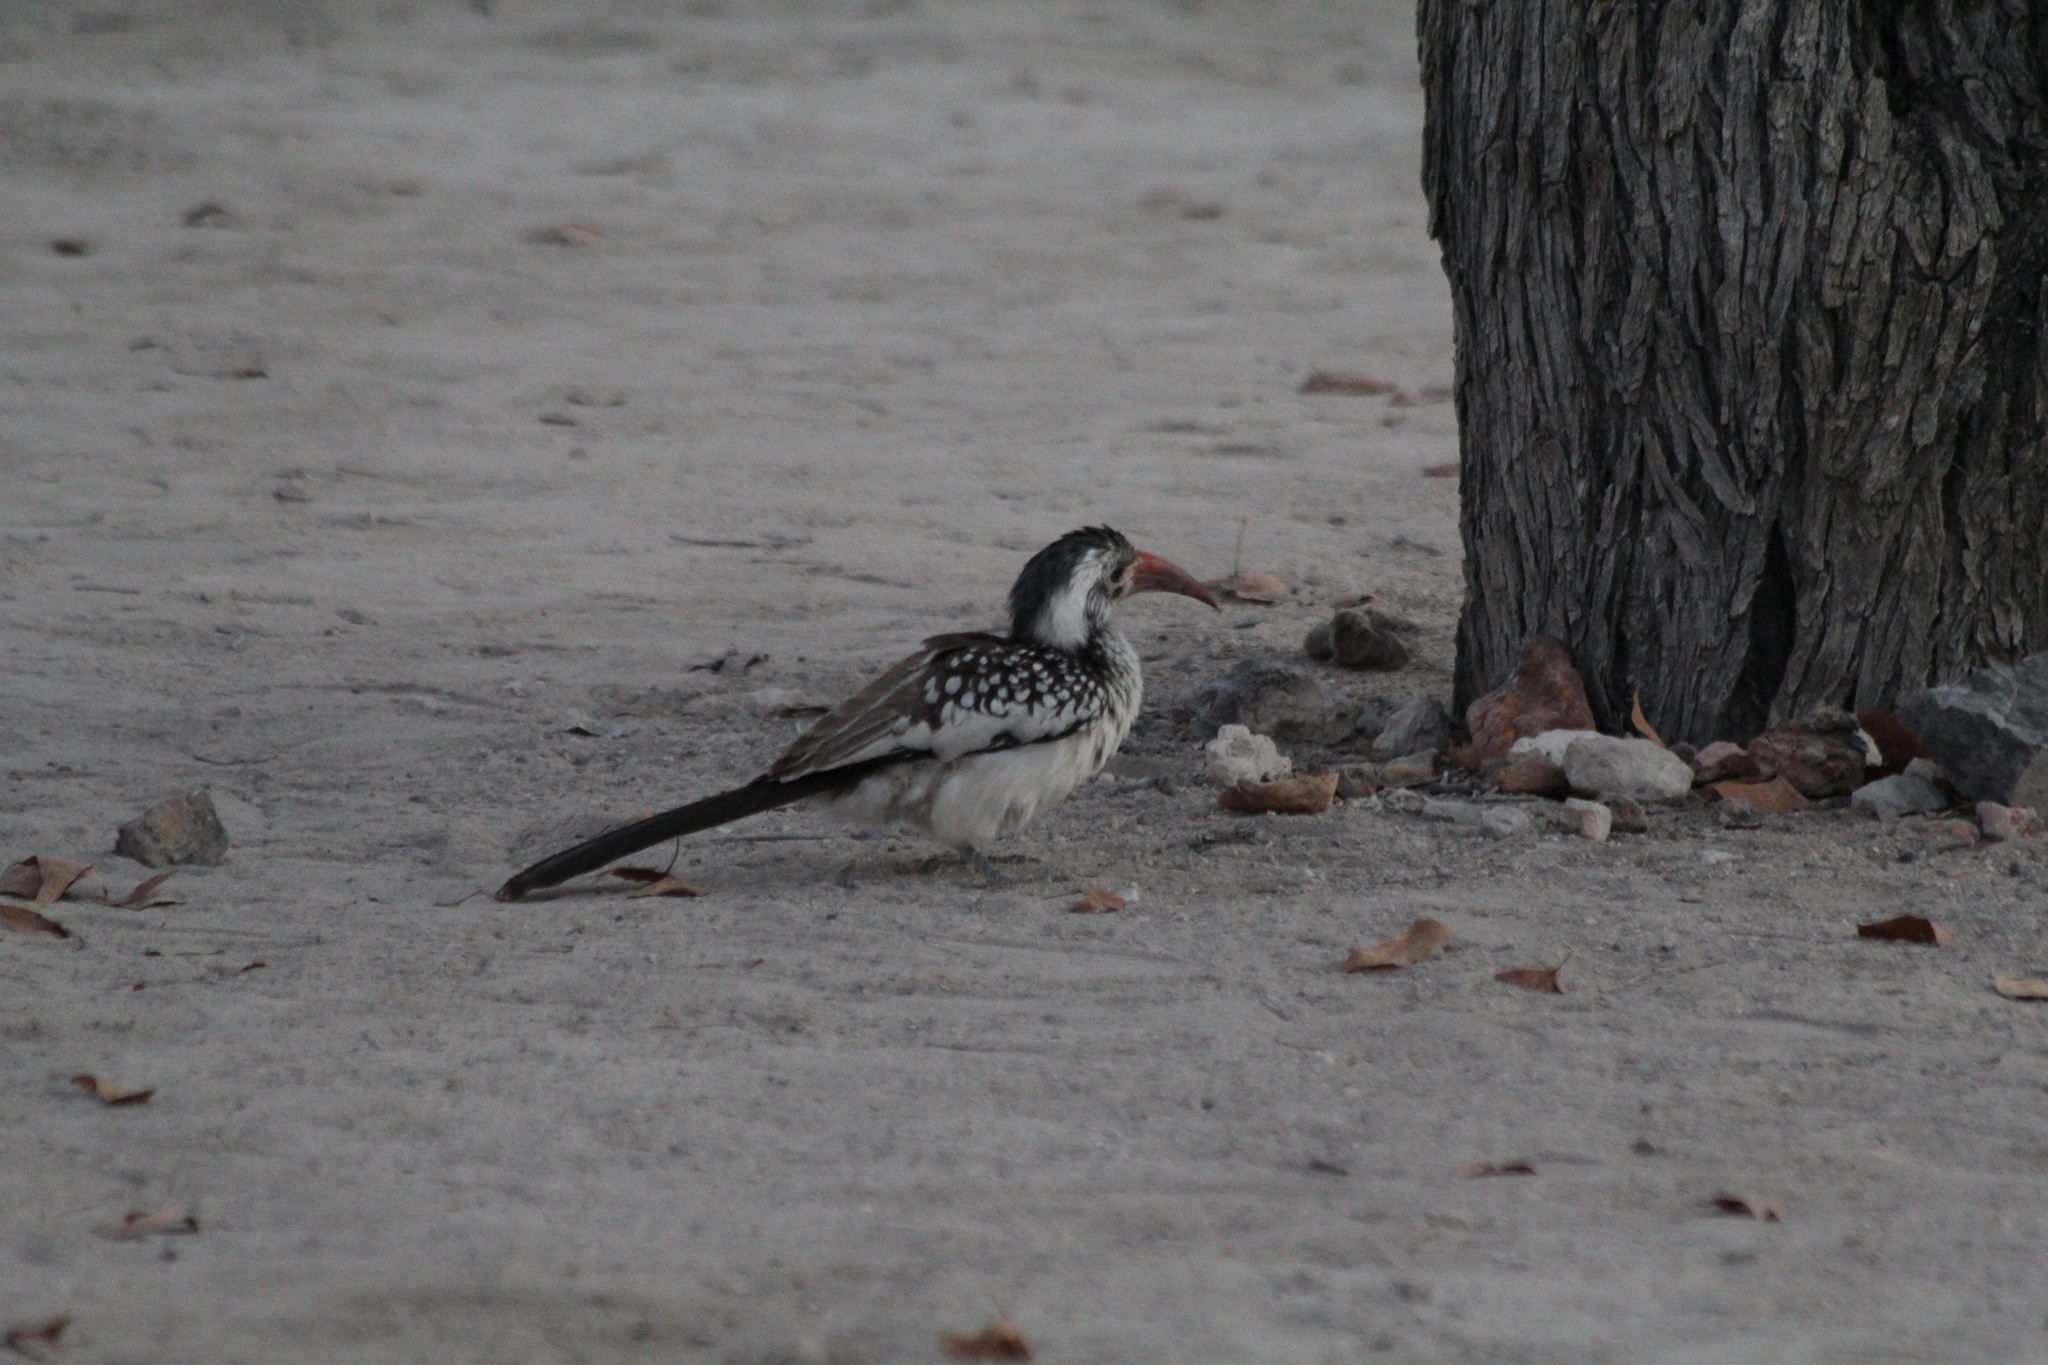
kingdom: Animalia
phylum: Chordata
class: Aves
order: Bucerotiformes
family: Bucerotidae
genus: Tockus
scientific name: Tockus rufirostris
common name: Southern red-billed hornbill
